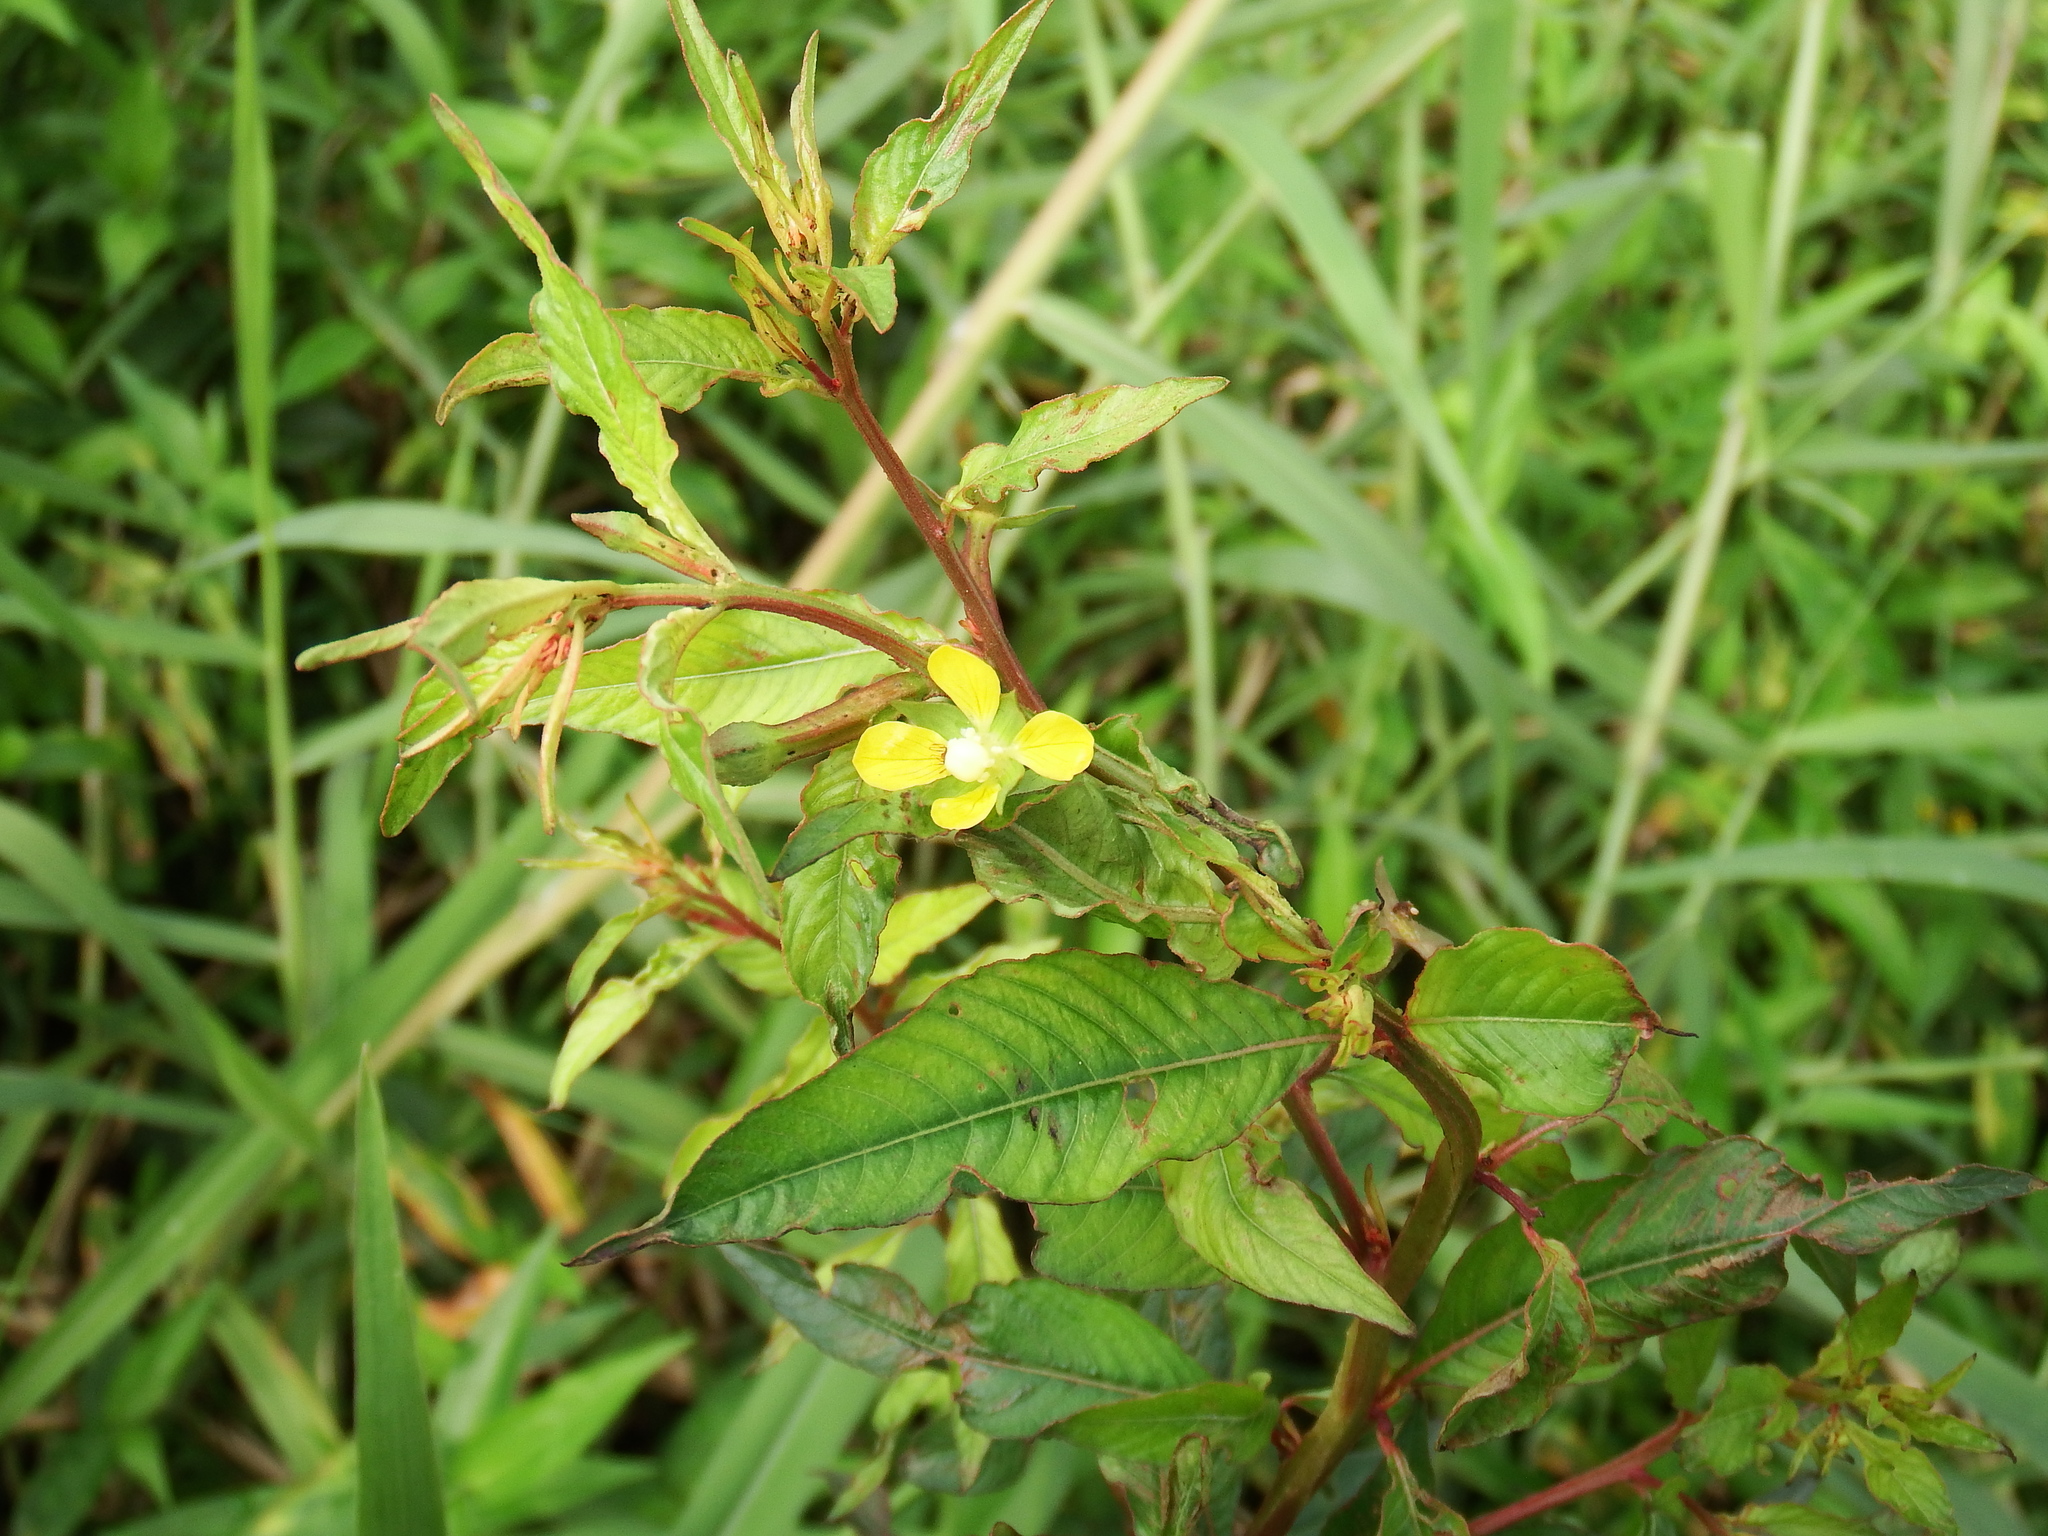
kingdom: Plantae
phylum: Tracheophyta
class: Magnoliopsida
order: Myrtales
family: Onagraceae
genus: Ludwigia
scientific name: Ludwigia erecta
